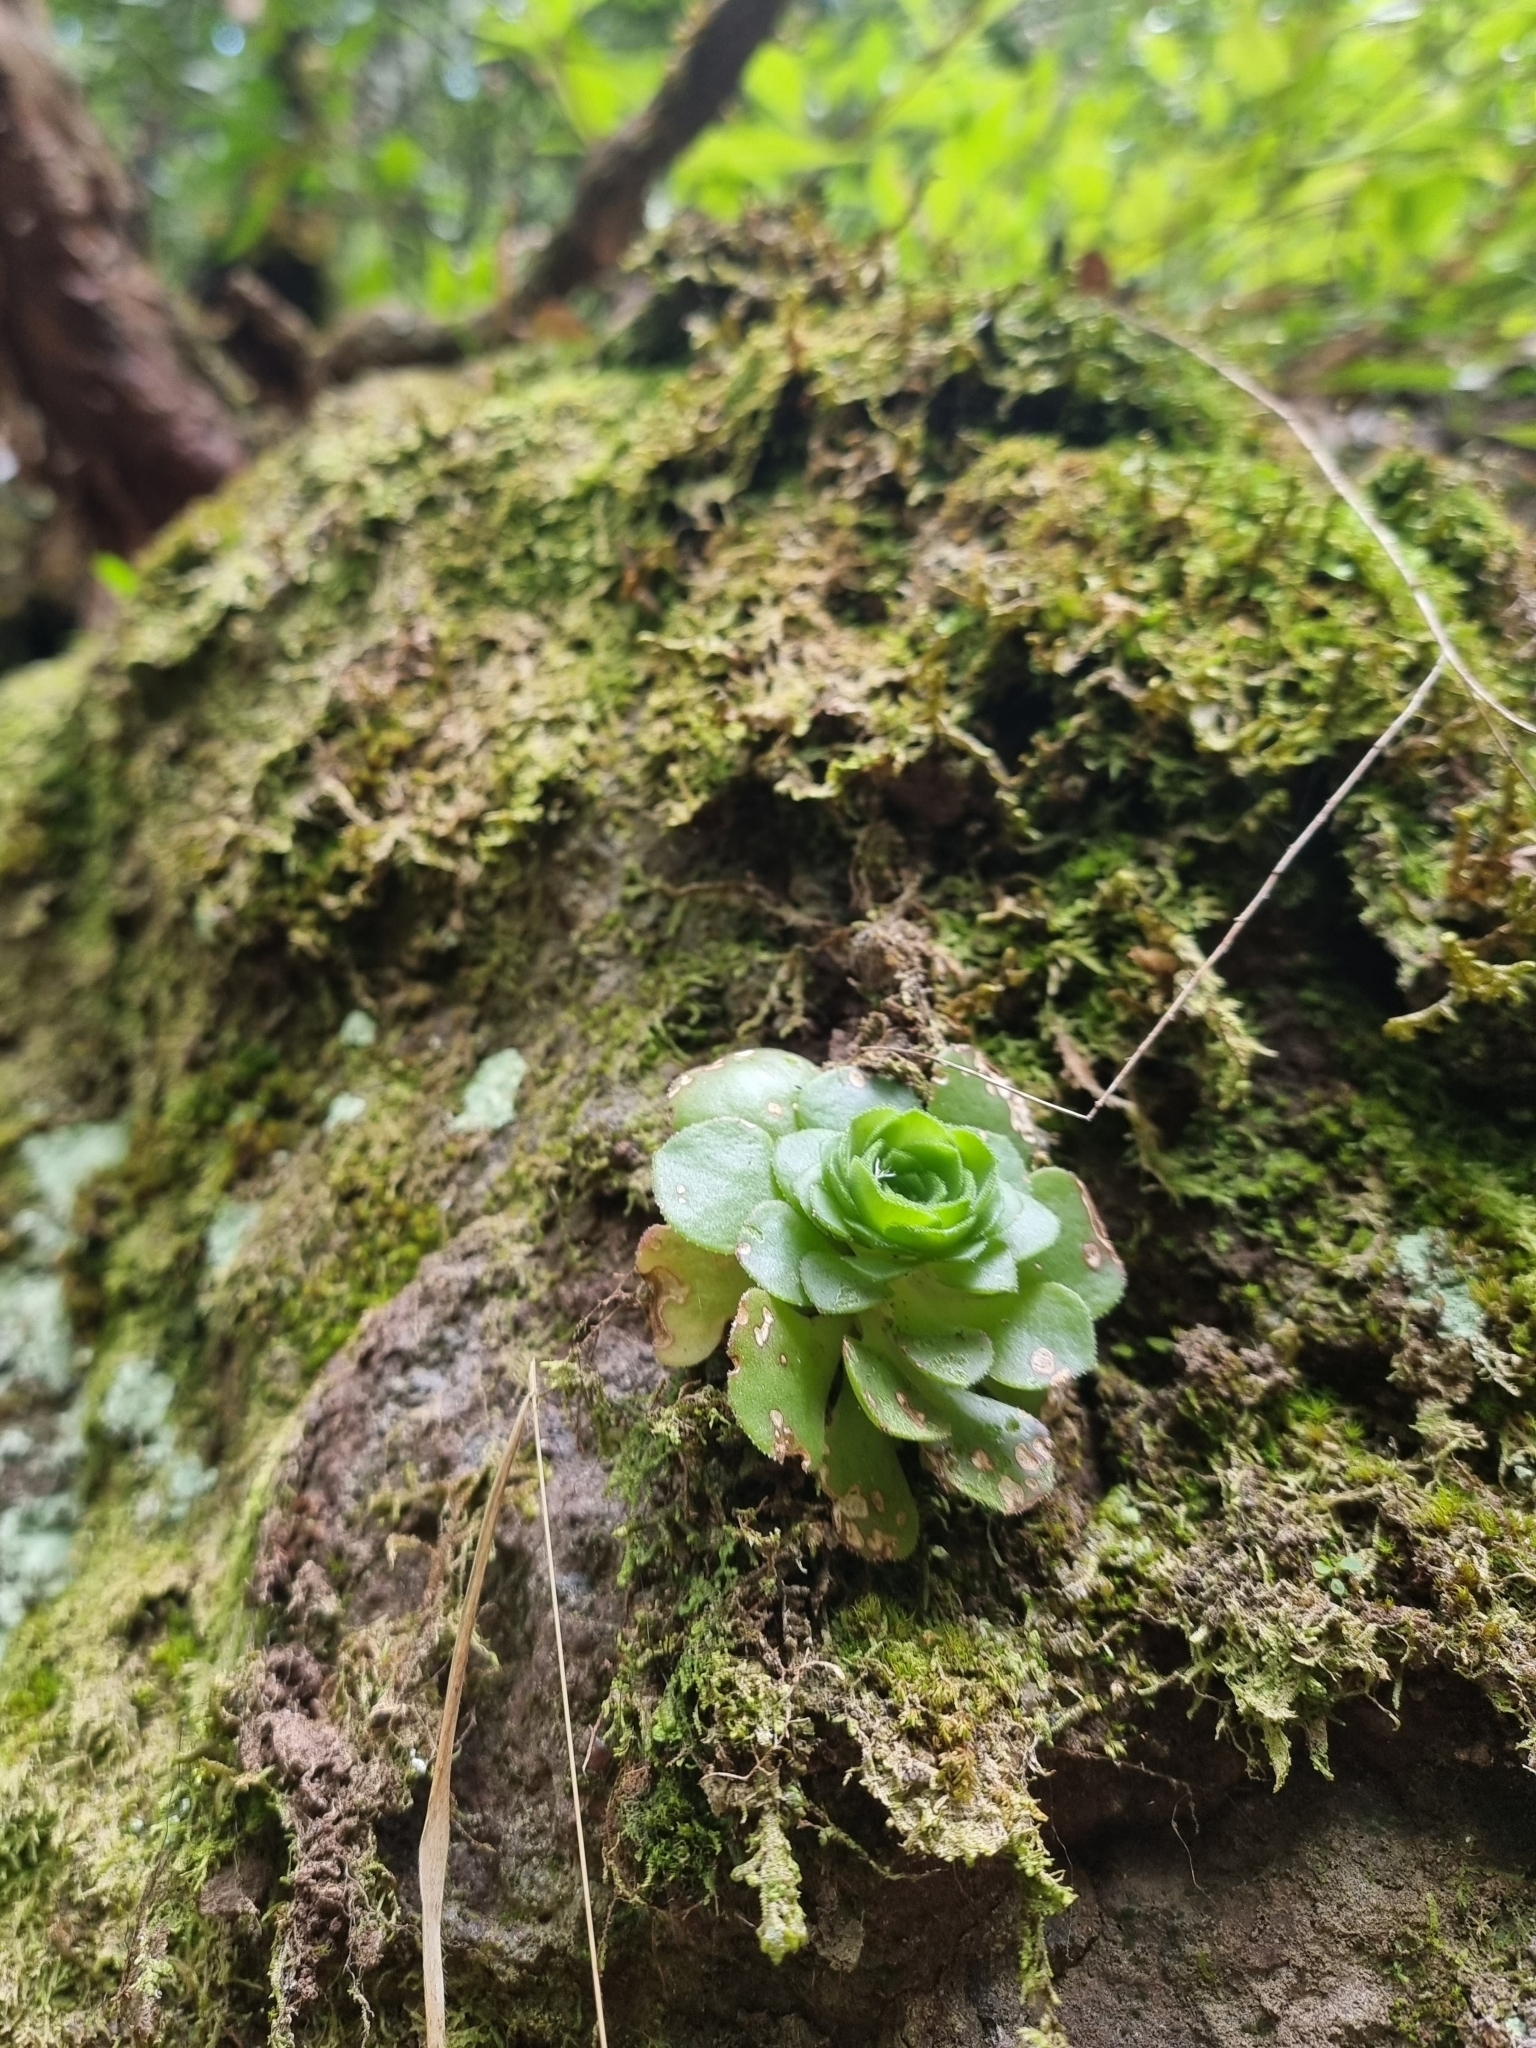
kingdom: Plantae
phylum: Tracheophyta
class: Magnoliopsida
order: Saxifragales
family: Crassulaceae
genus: Aeonium
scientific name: Aeonium glandulosum
